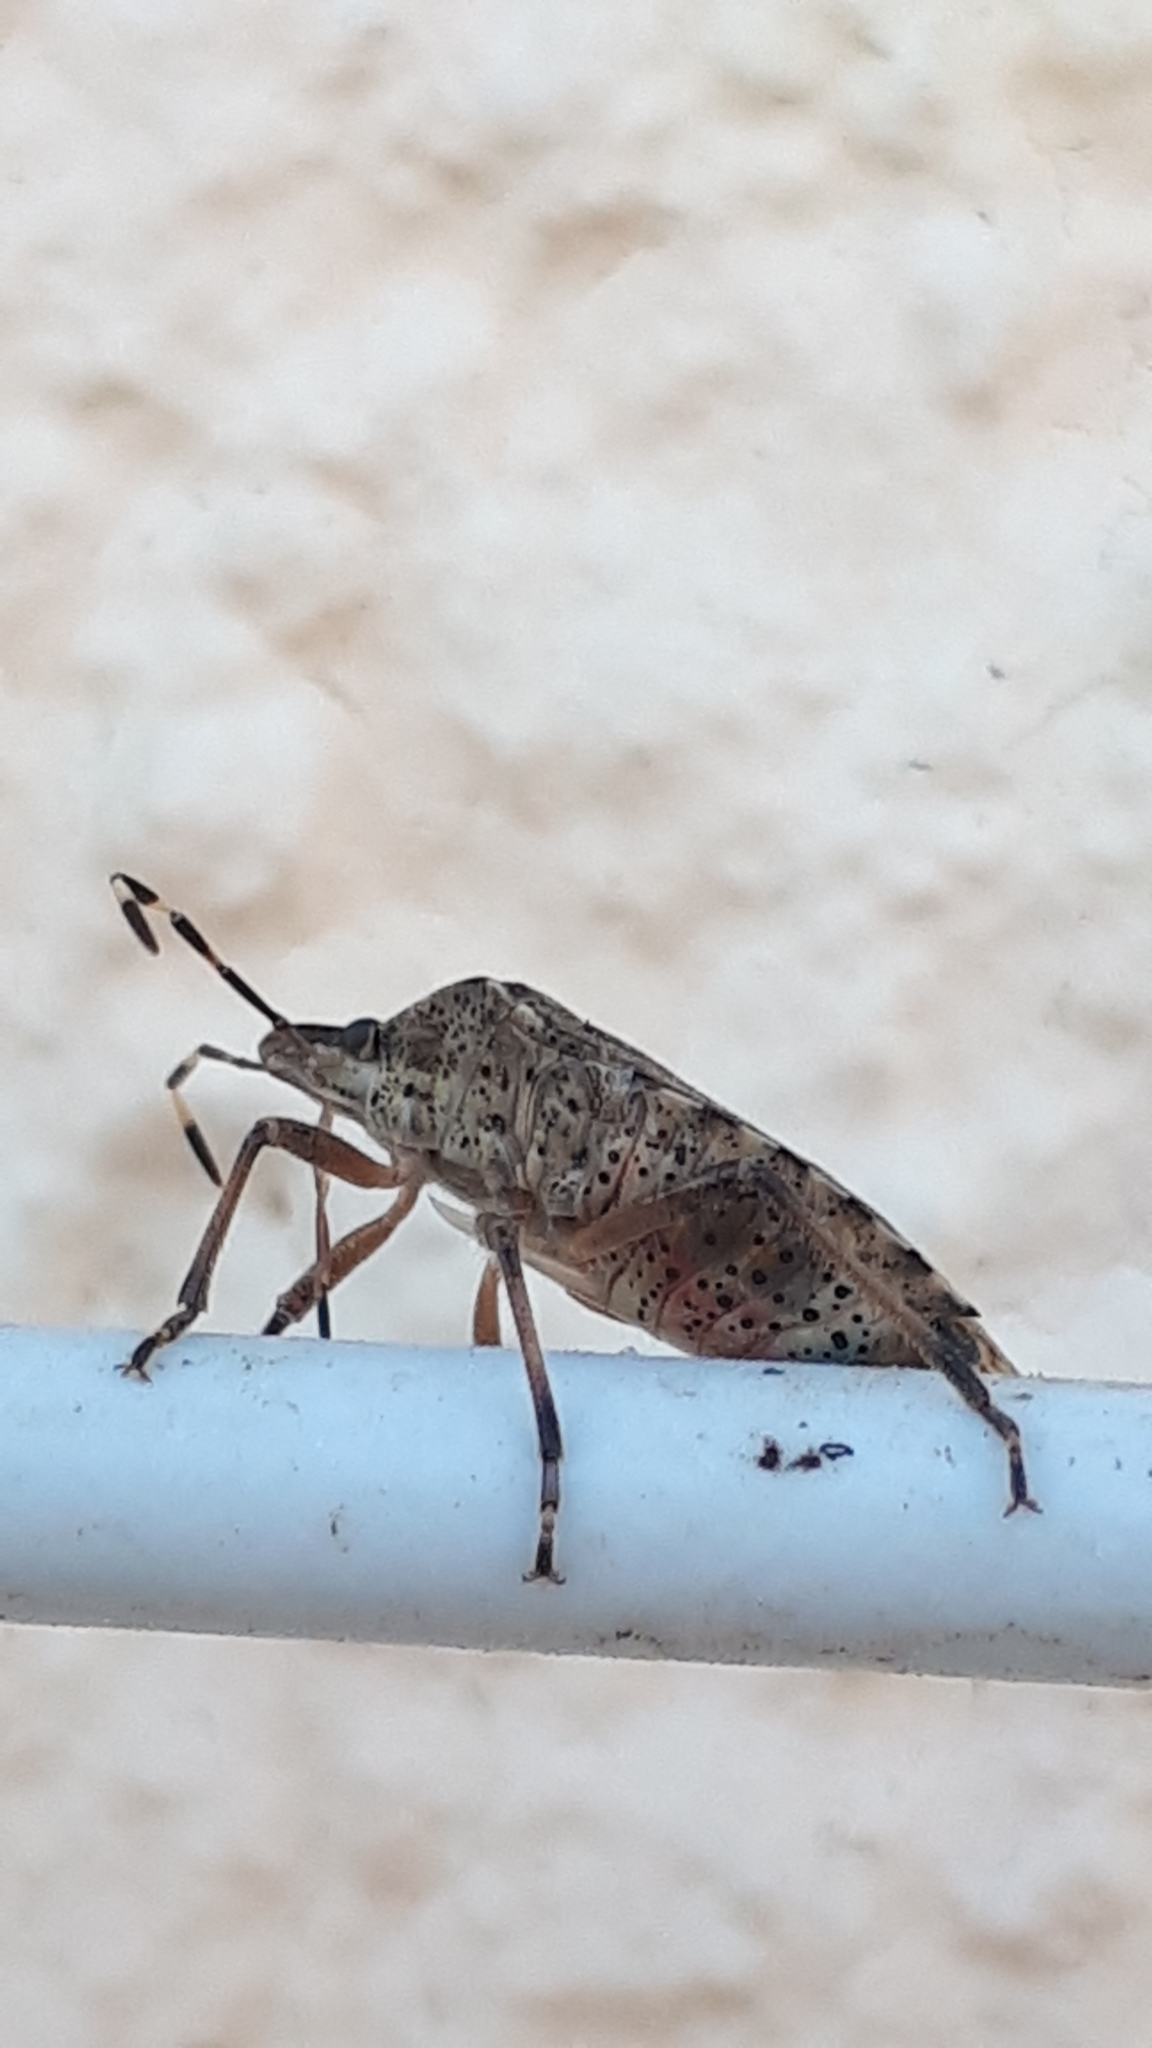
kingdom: Animalia
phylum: Arthropoda
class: Insecta
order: Hemiptera
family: Pentatomidae
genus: Rhaphigaster
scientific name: Rhaphigaster nebulosa
